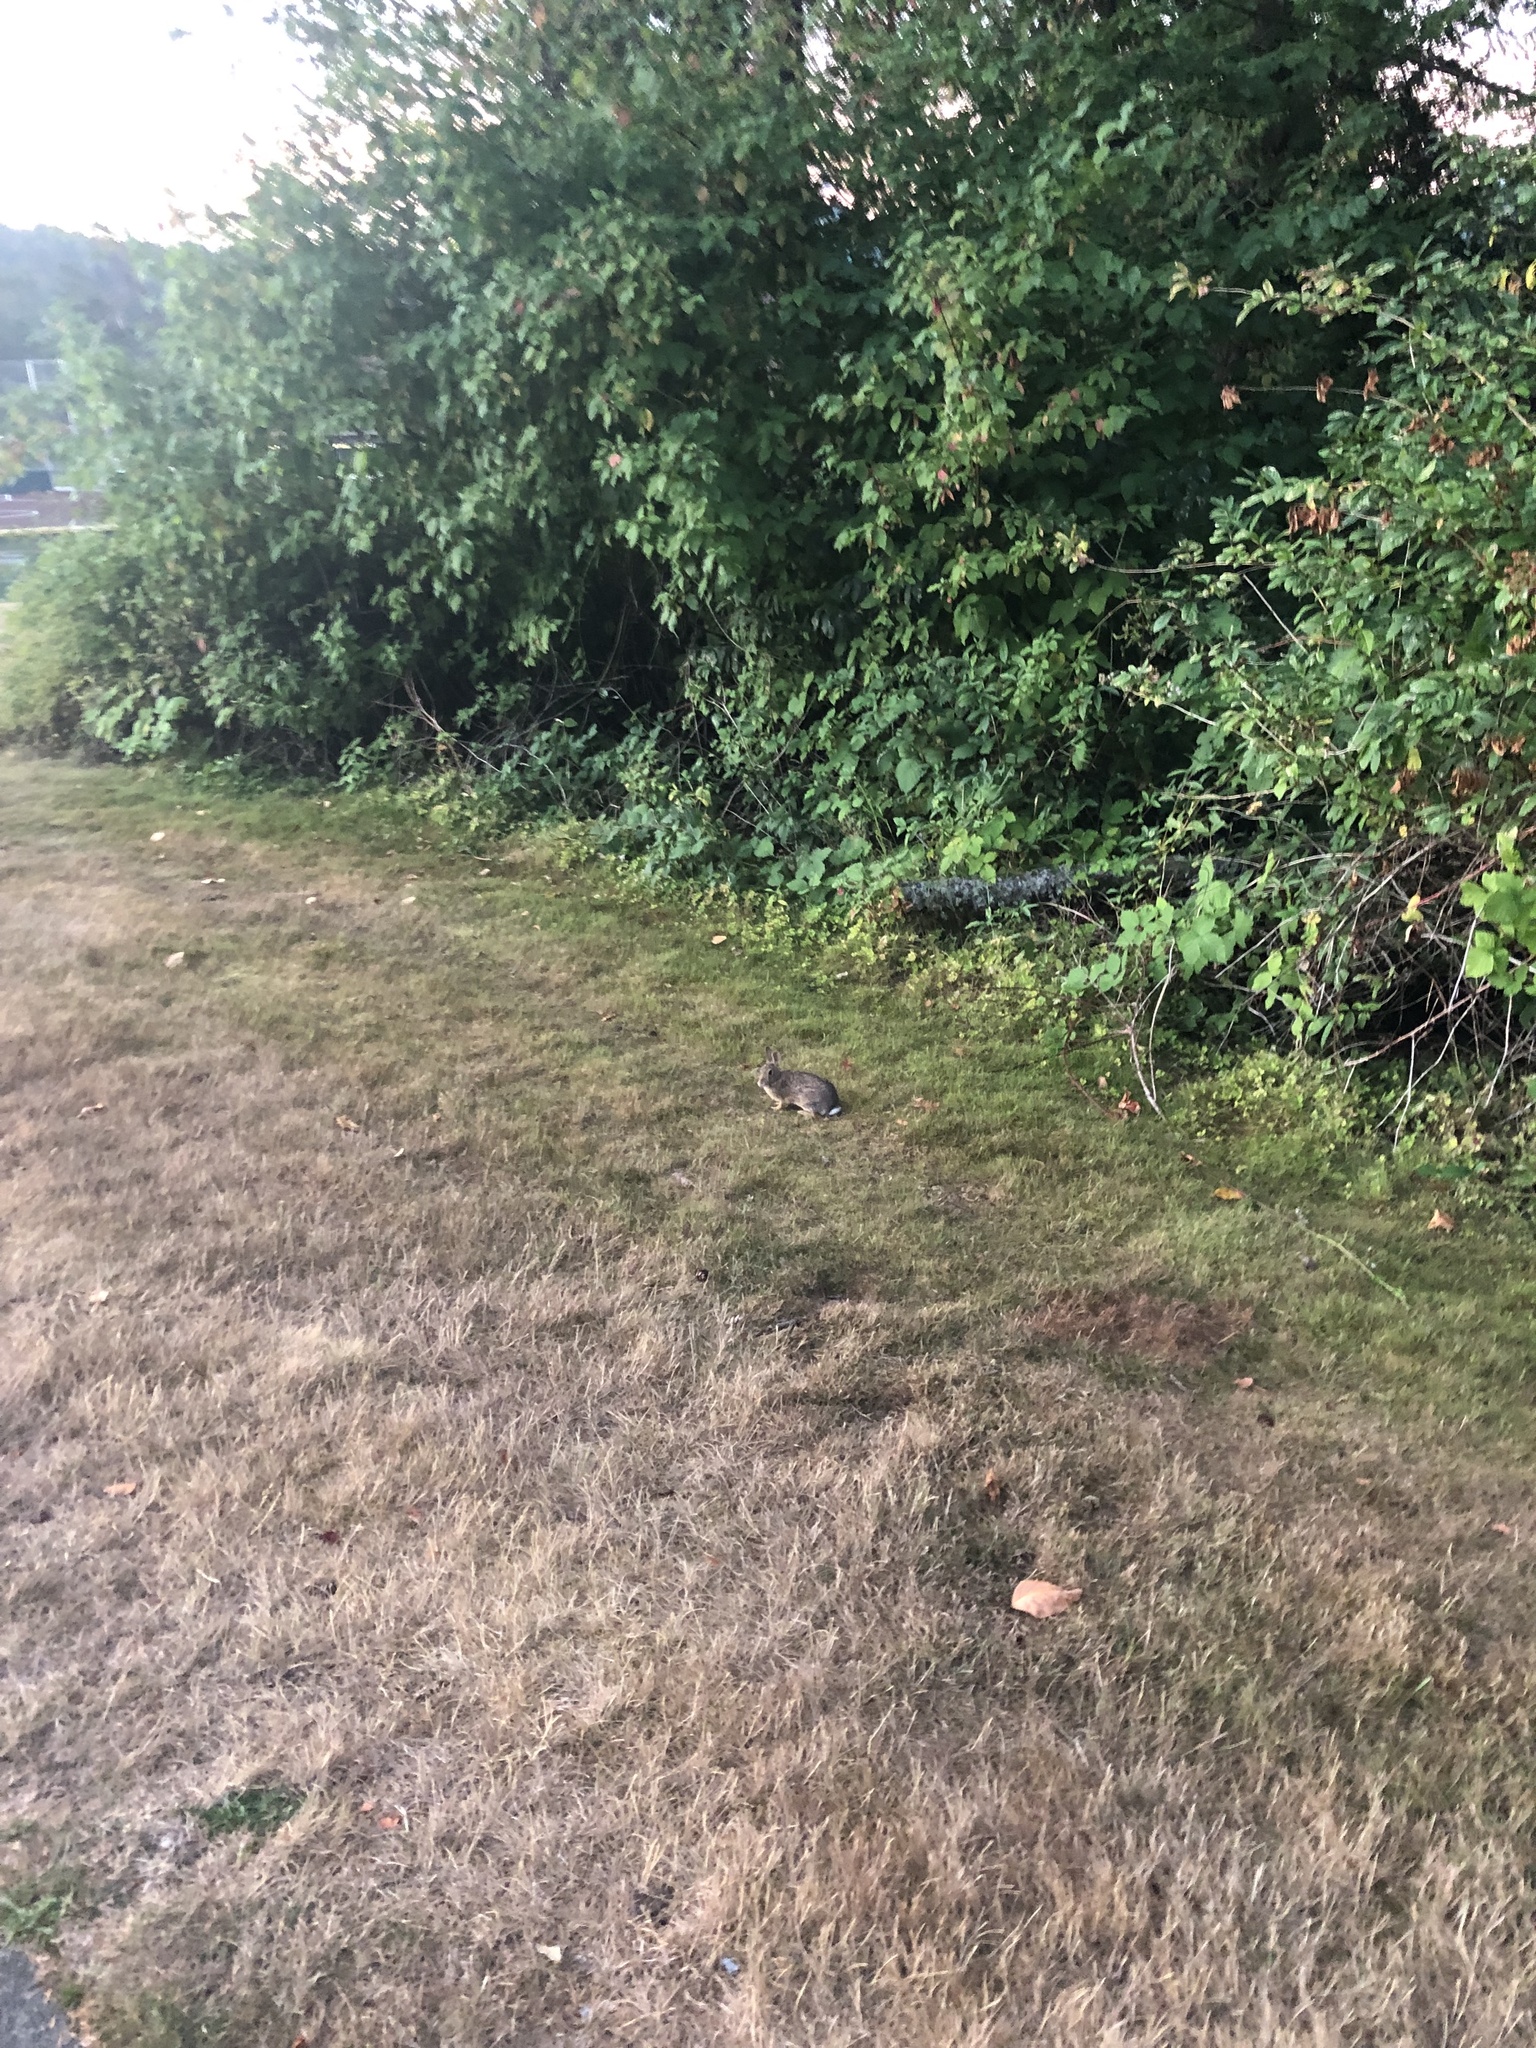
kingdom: Animalia
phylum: Chordata
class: Mammalia
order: Lagomorpha
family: Leporidae
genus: Sylvilagus
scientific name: Sylvilagus floridanus
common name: Eastern cottontail
